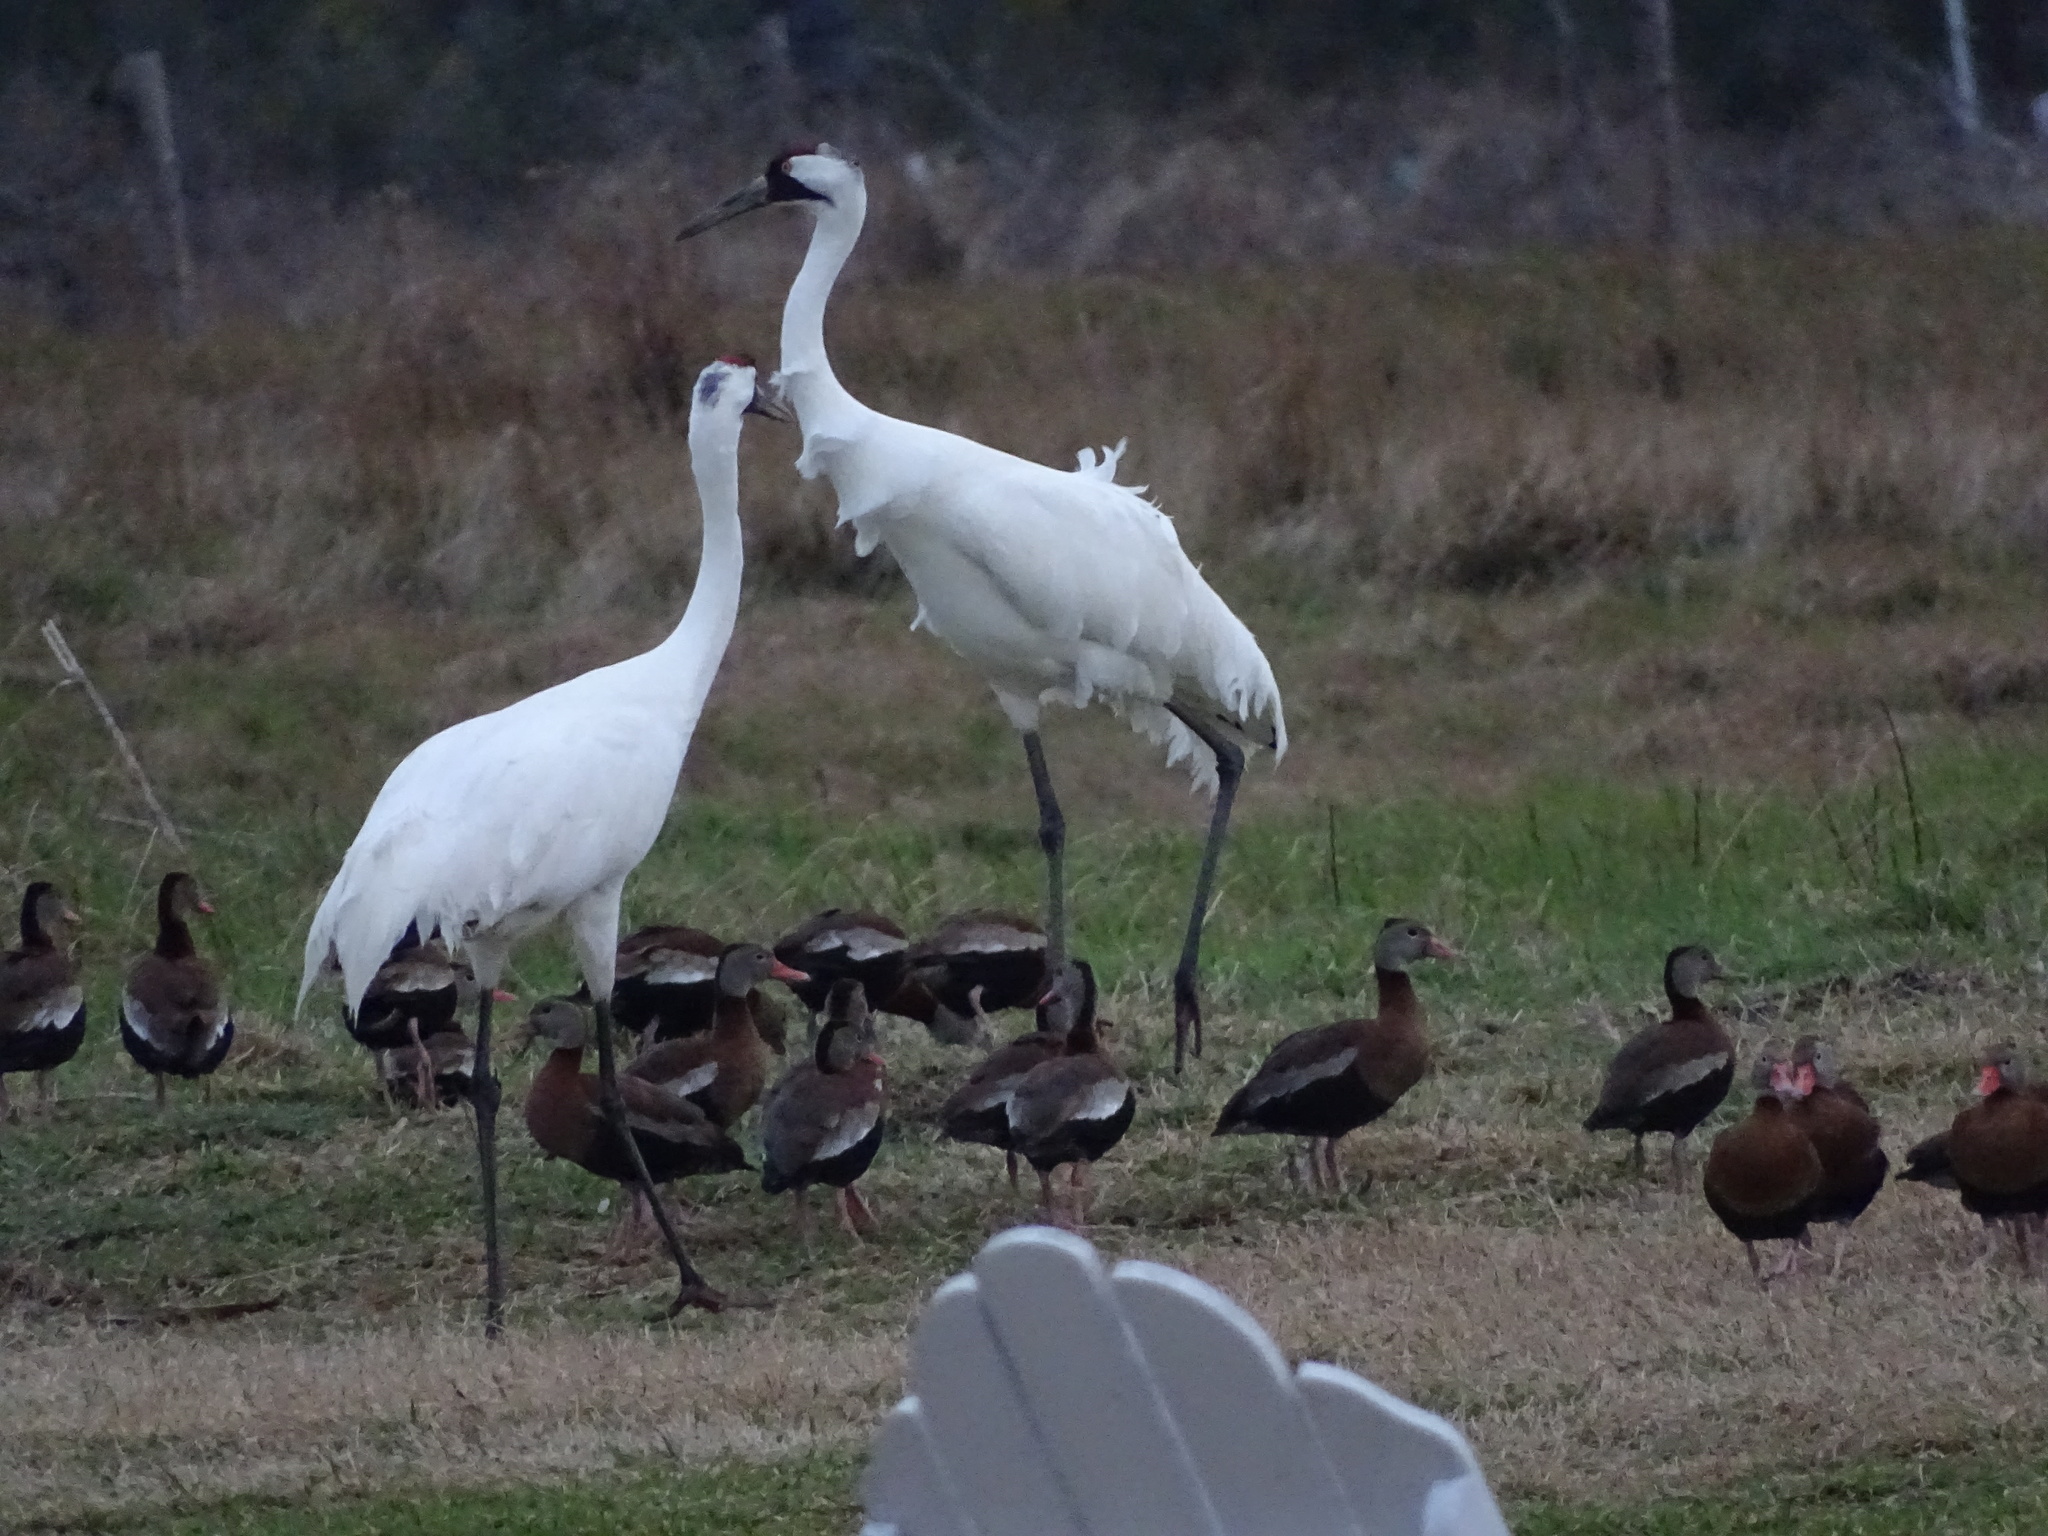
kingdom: Animalia
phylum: Chordata
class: Aves
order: Gruiformes
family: Gruidae
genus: Grus
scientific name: Grus americana
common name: Whooping crane
